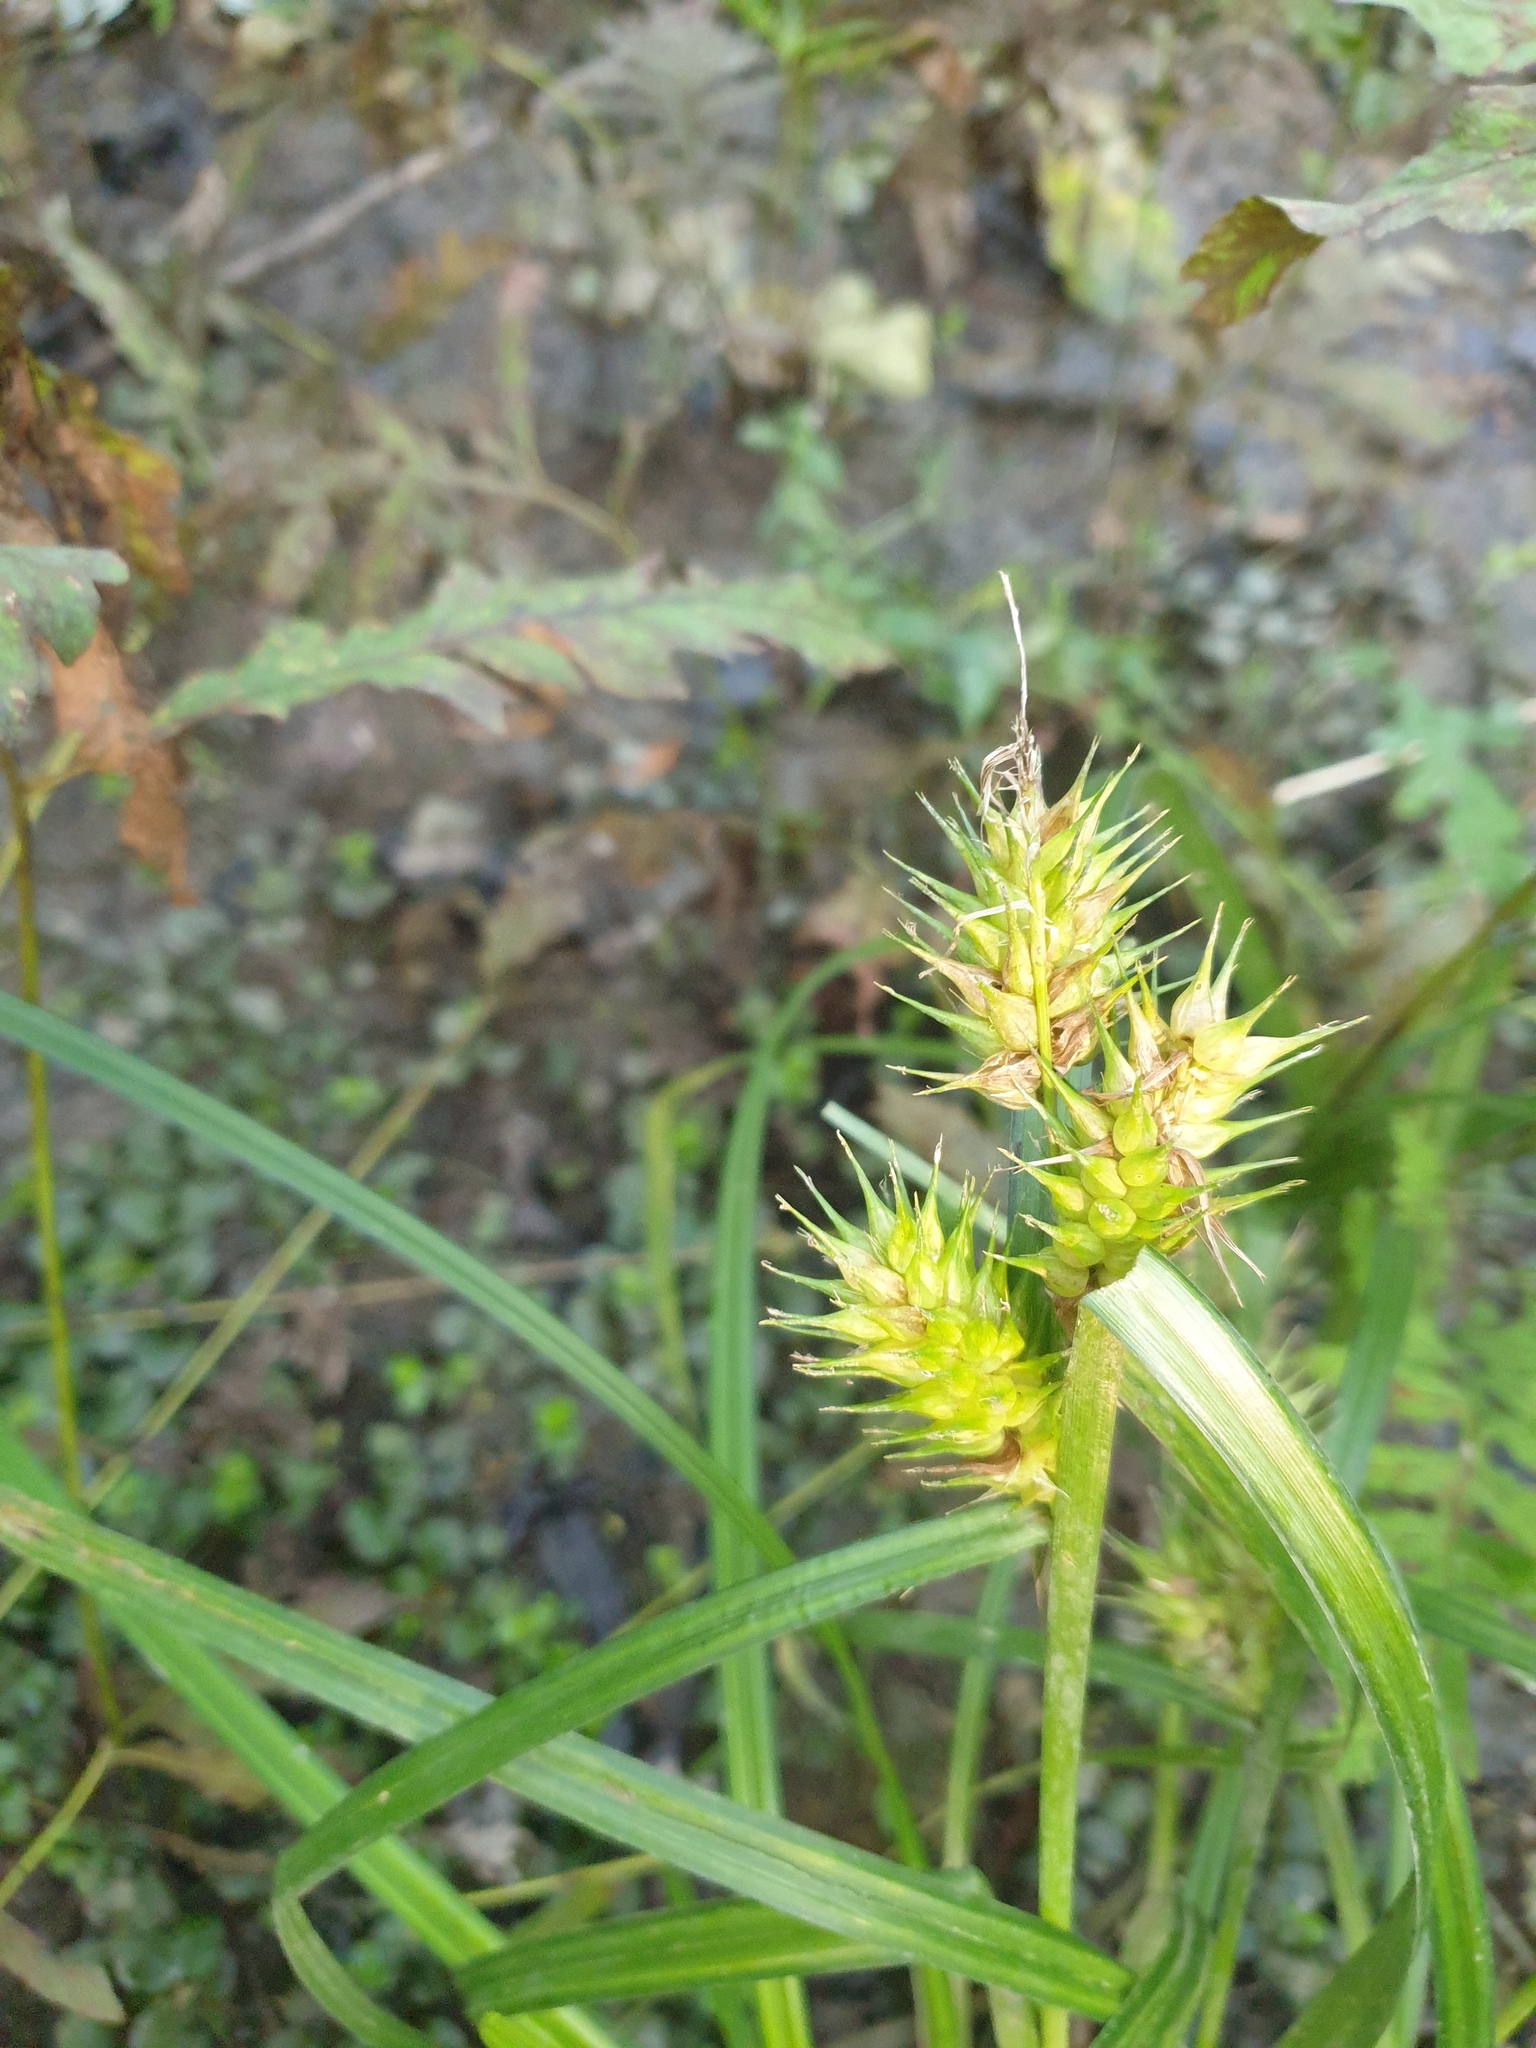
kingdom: Plantae
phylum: Tracheophyta
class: Liliopsida
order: Poales
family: Cyperaceae
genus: Carex
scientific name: Carex lupulina
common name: Hop sedge
